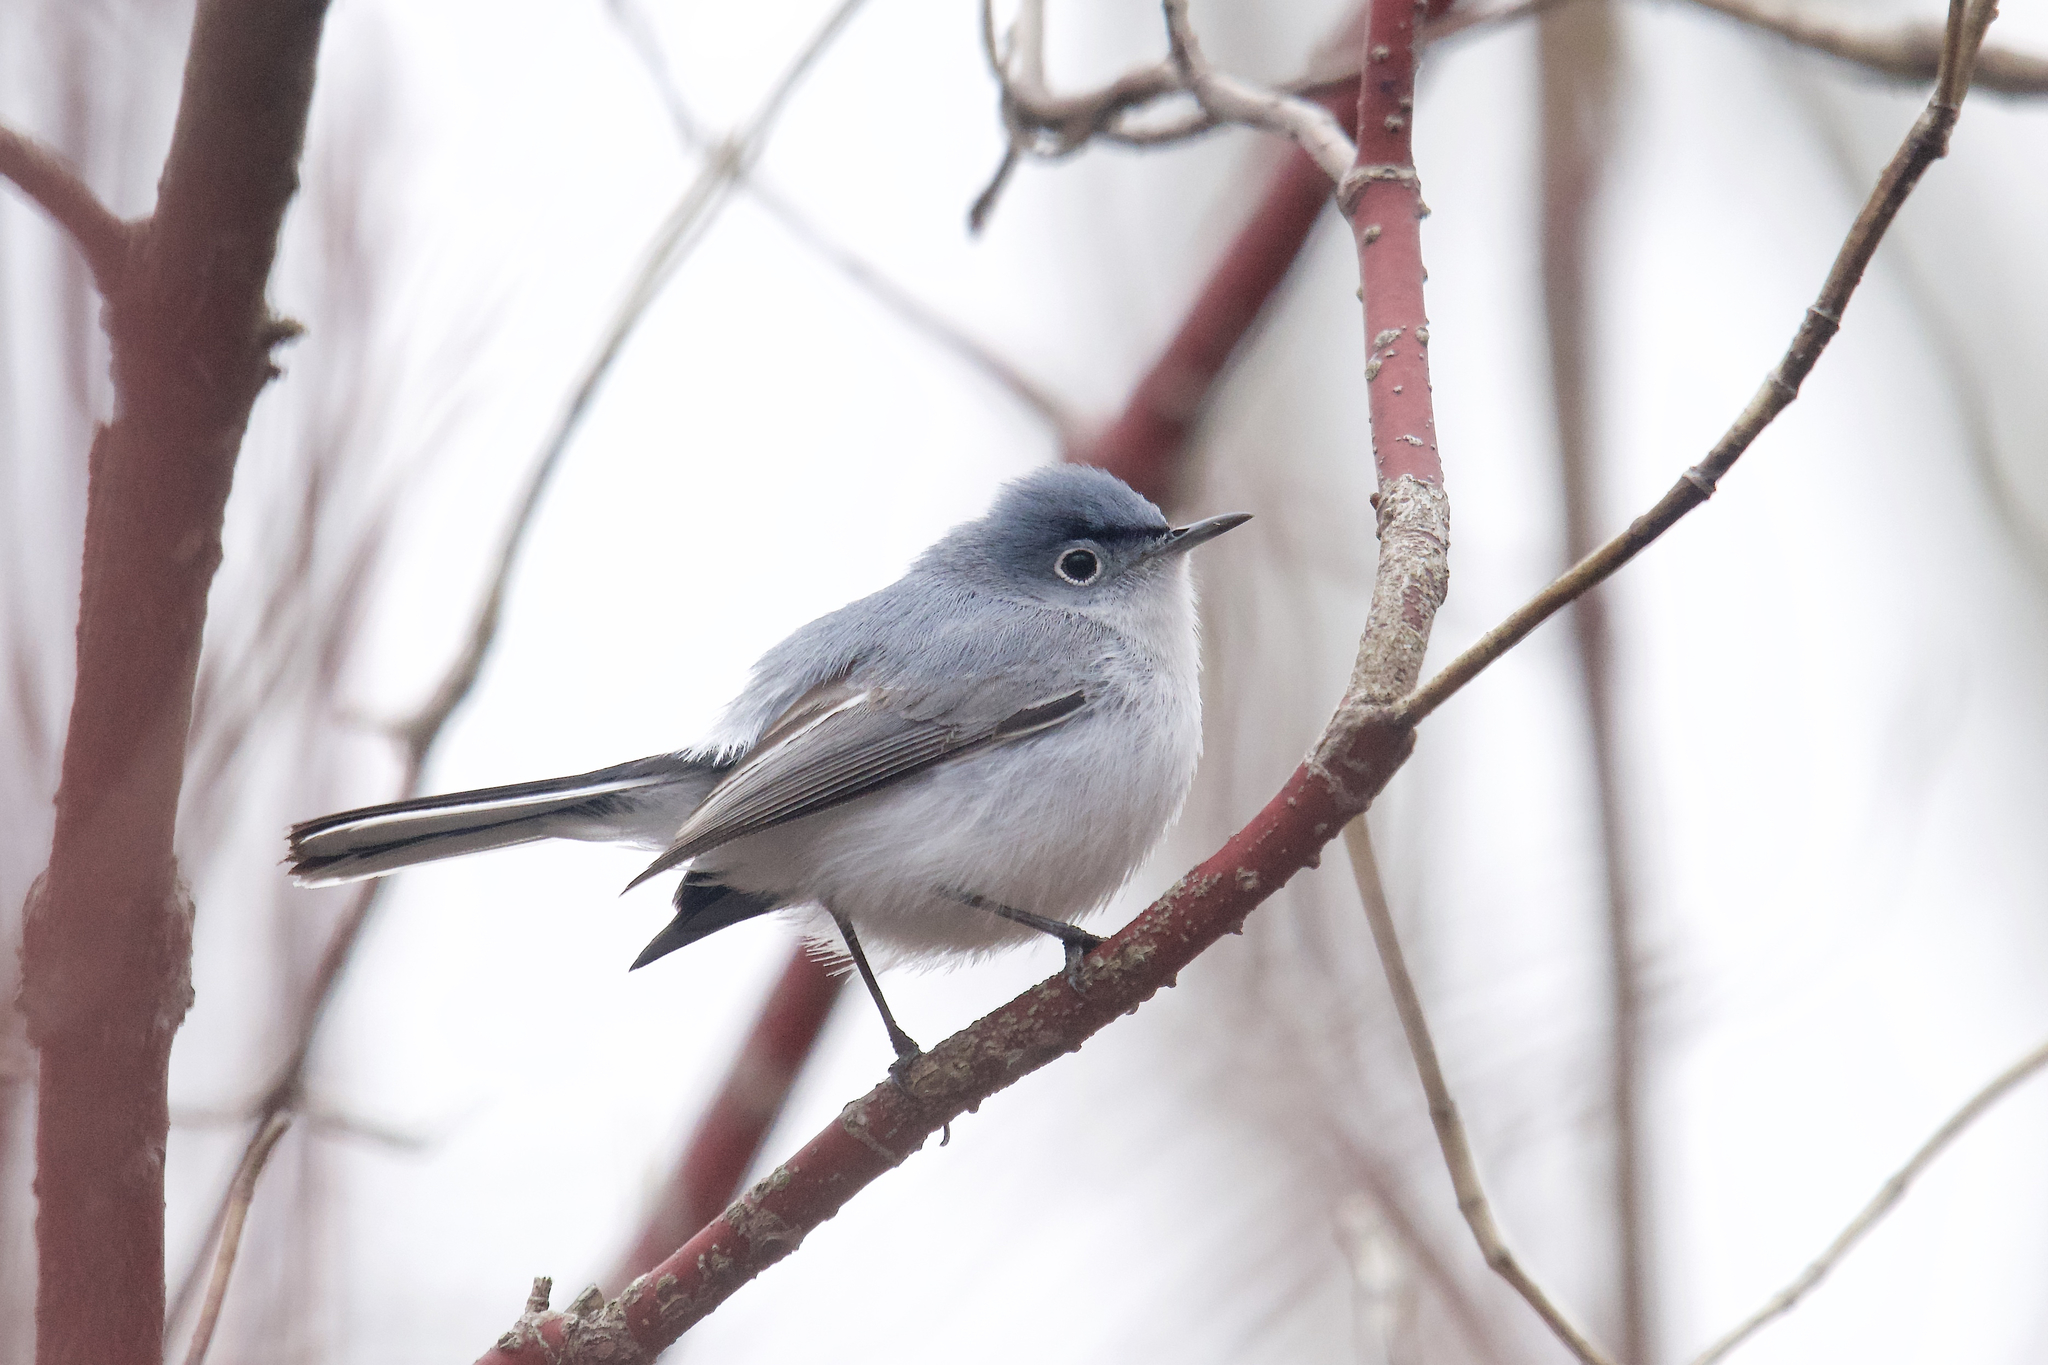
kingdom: Animalia
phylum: Chordata
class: Aves
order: Passeriformes
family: Polioptilidae
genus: Polioptila
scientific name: Polioptila caerulea
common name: Blue-gray gnatcatcher
